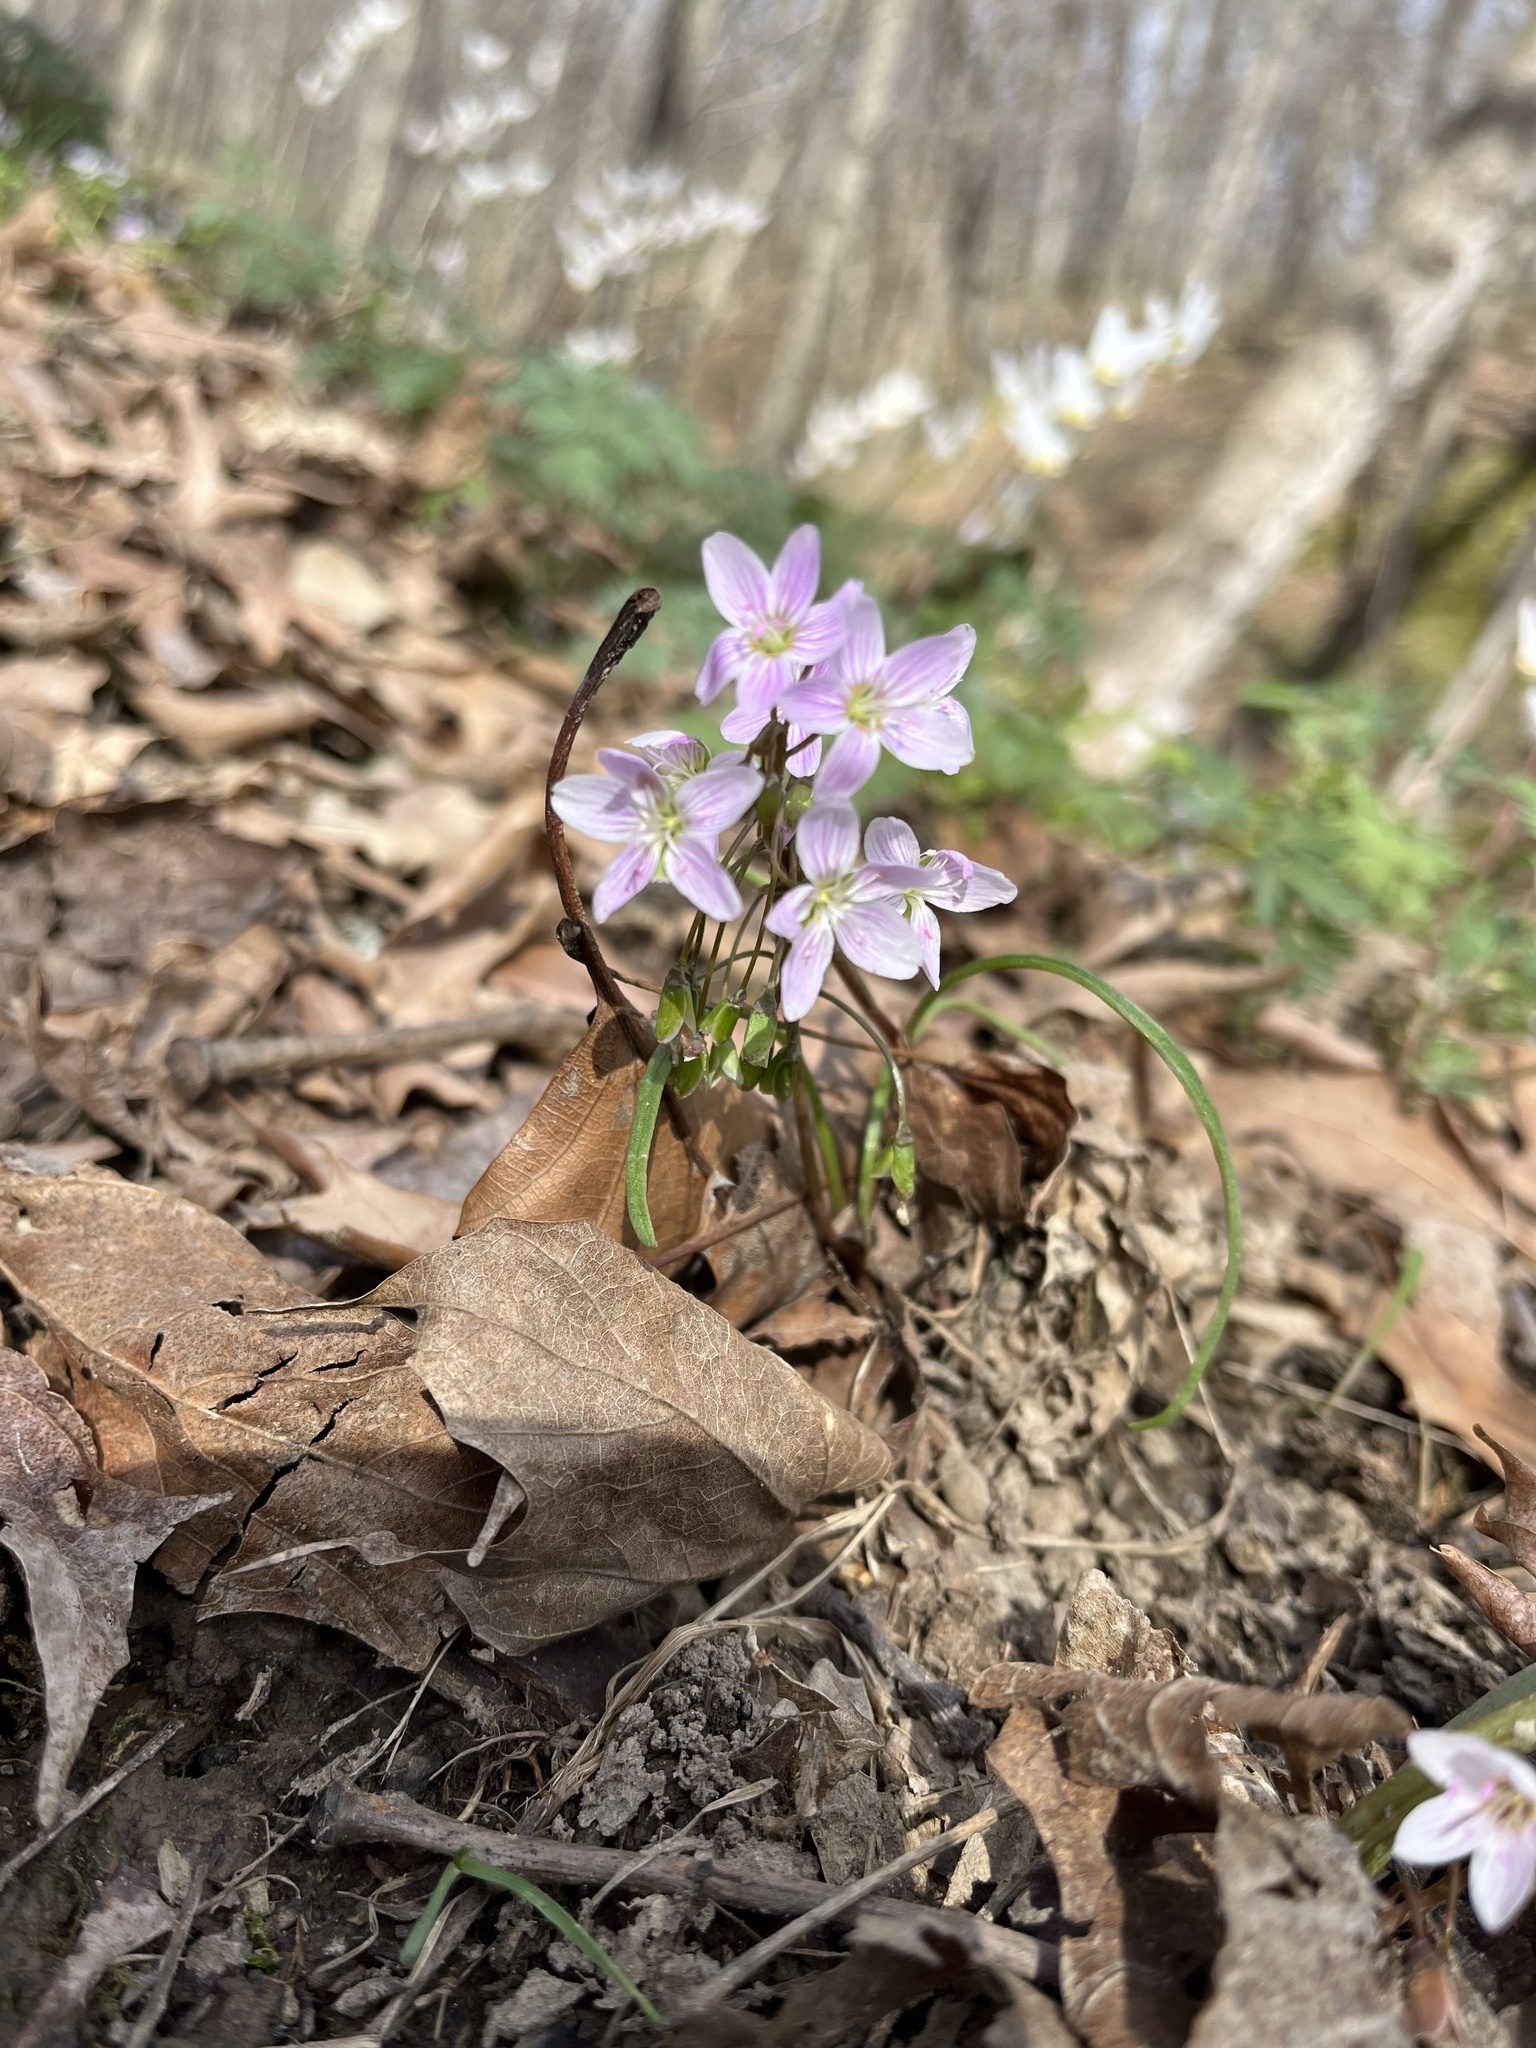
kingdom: Plantae
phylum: Tracheophyta
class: Magnoliopsida
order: Caryophyllales
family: Montiaceae
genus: Claytonia
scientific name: Claytonia virginica
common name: Virginia springbeauty
